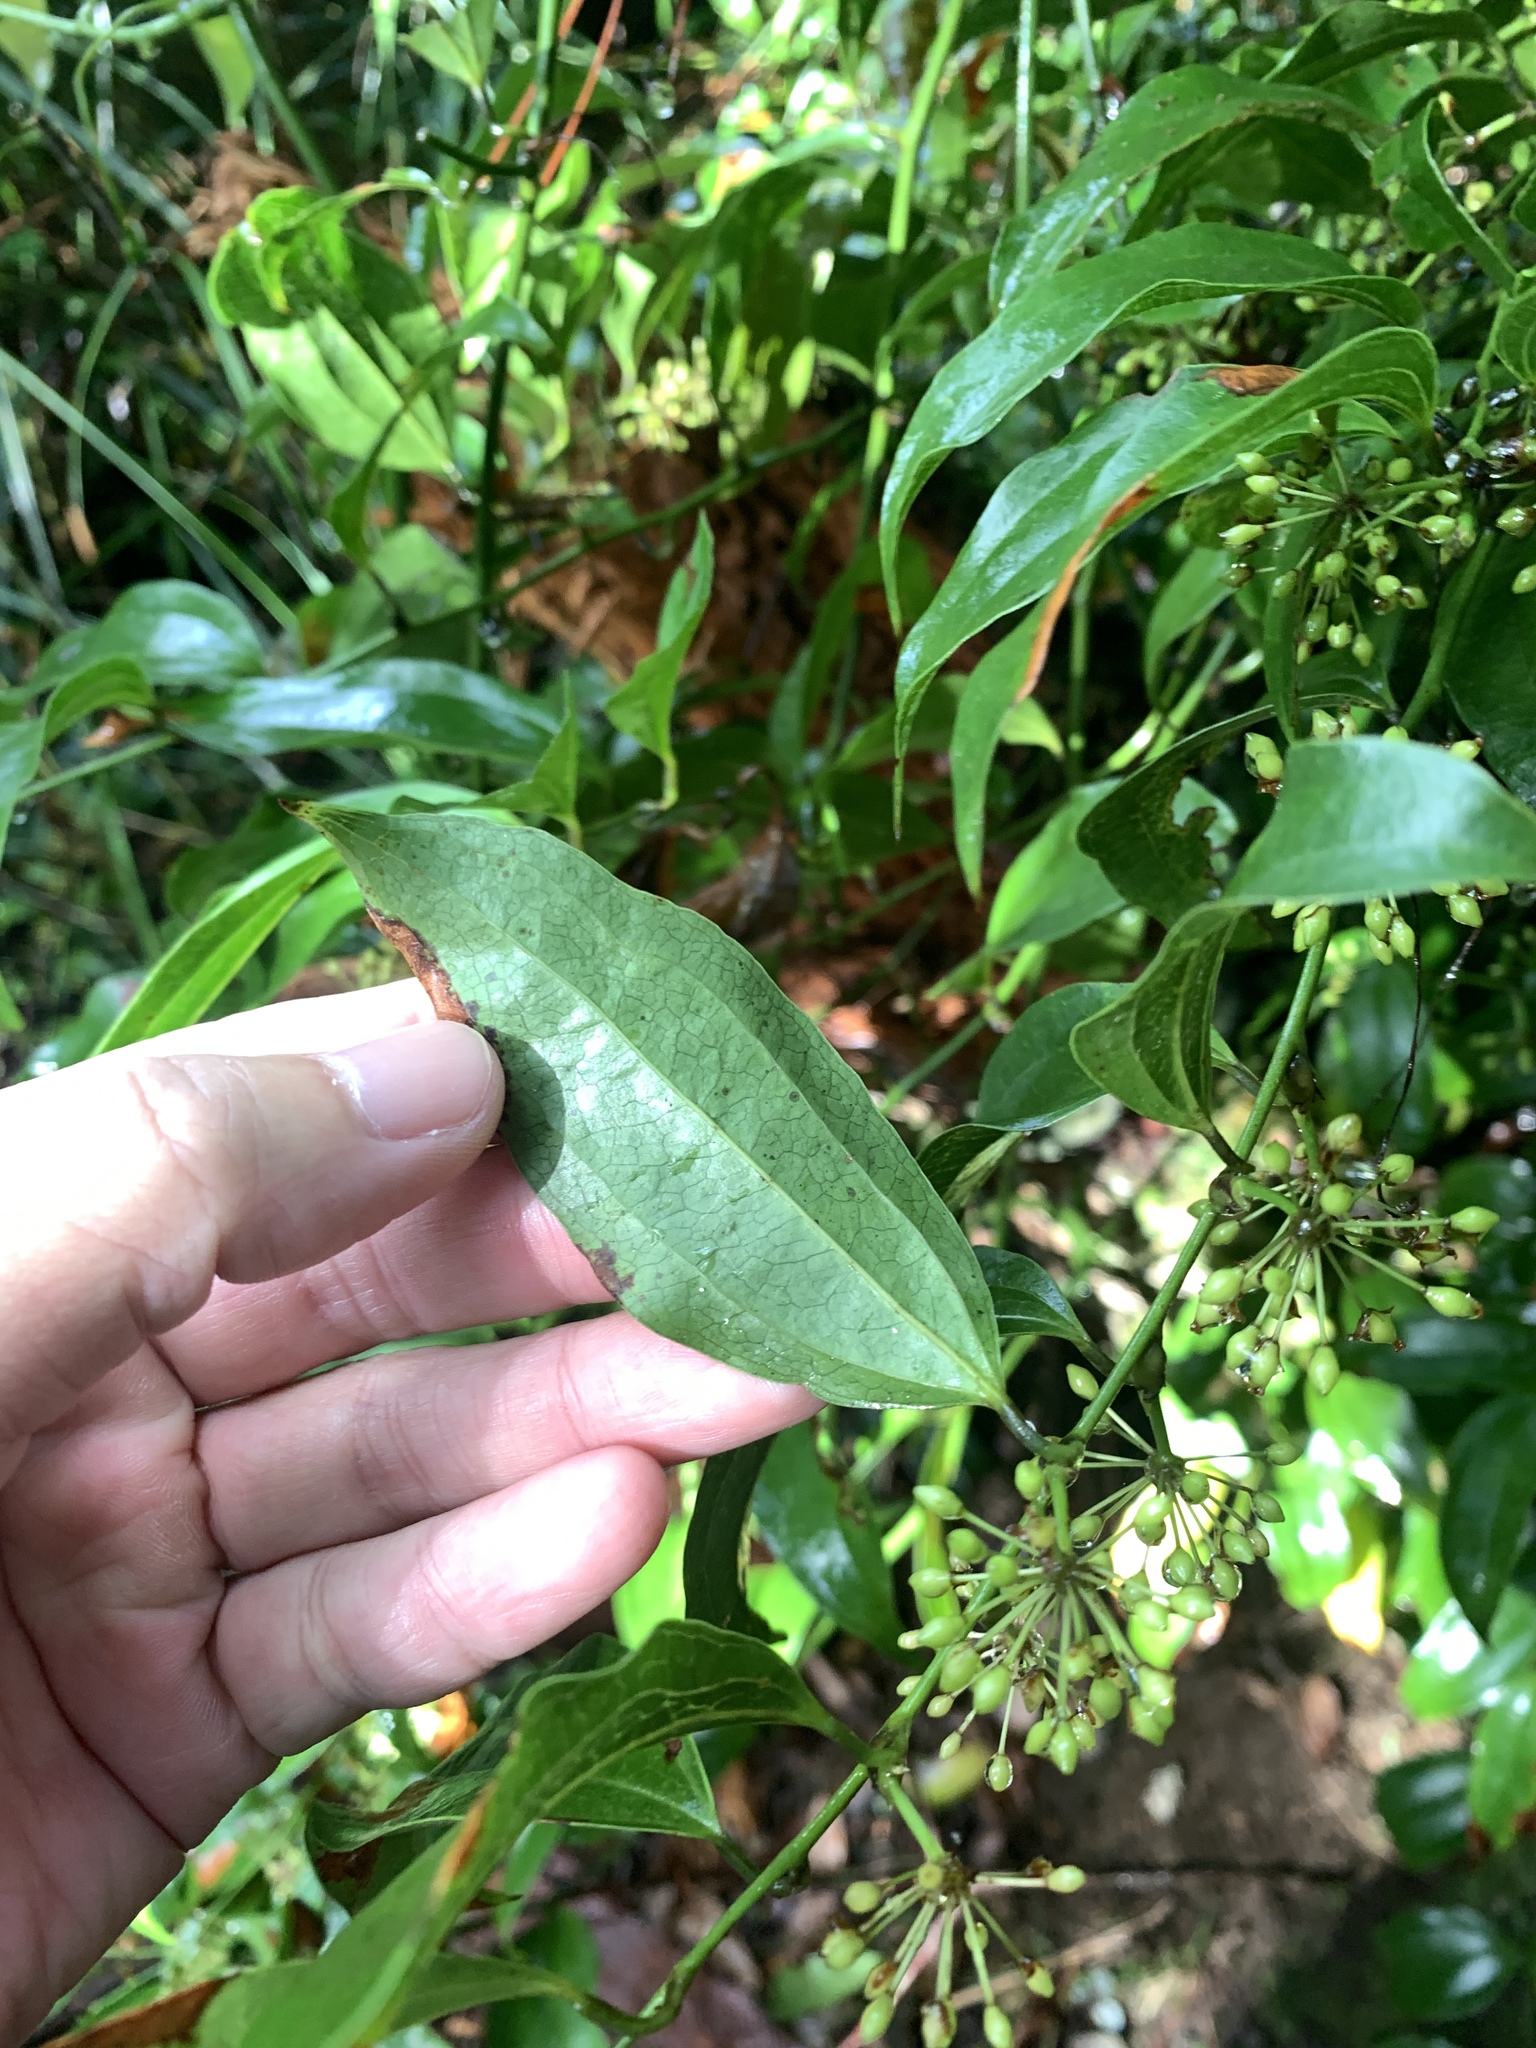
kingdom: Plantae
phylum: Tracheophyta
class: Liliopsida
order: Liliales
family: Smilacaceae
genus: Smilax
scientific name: Smilax lanceifolia
